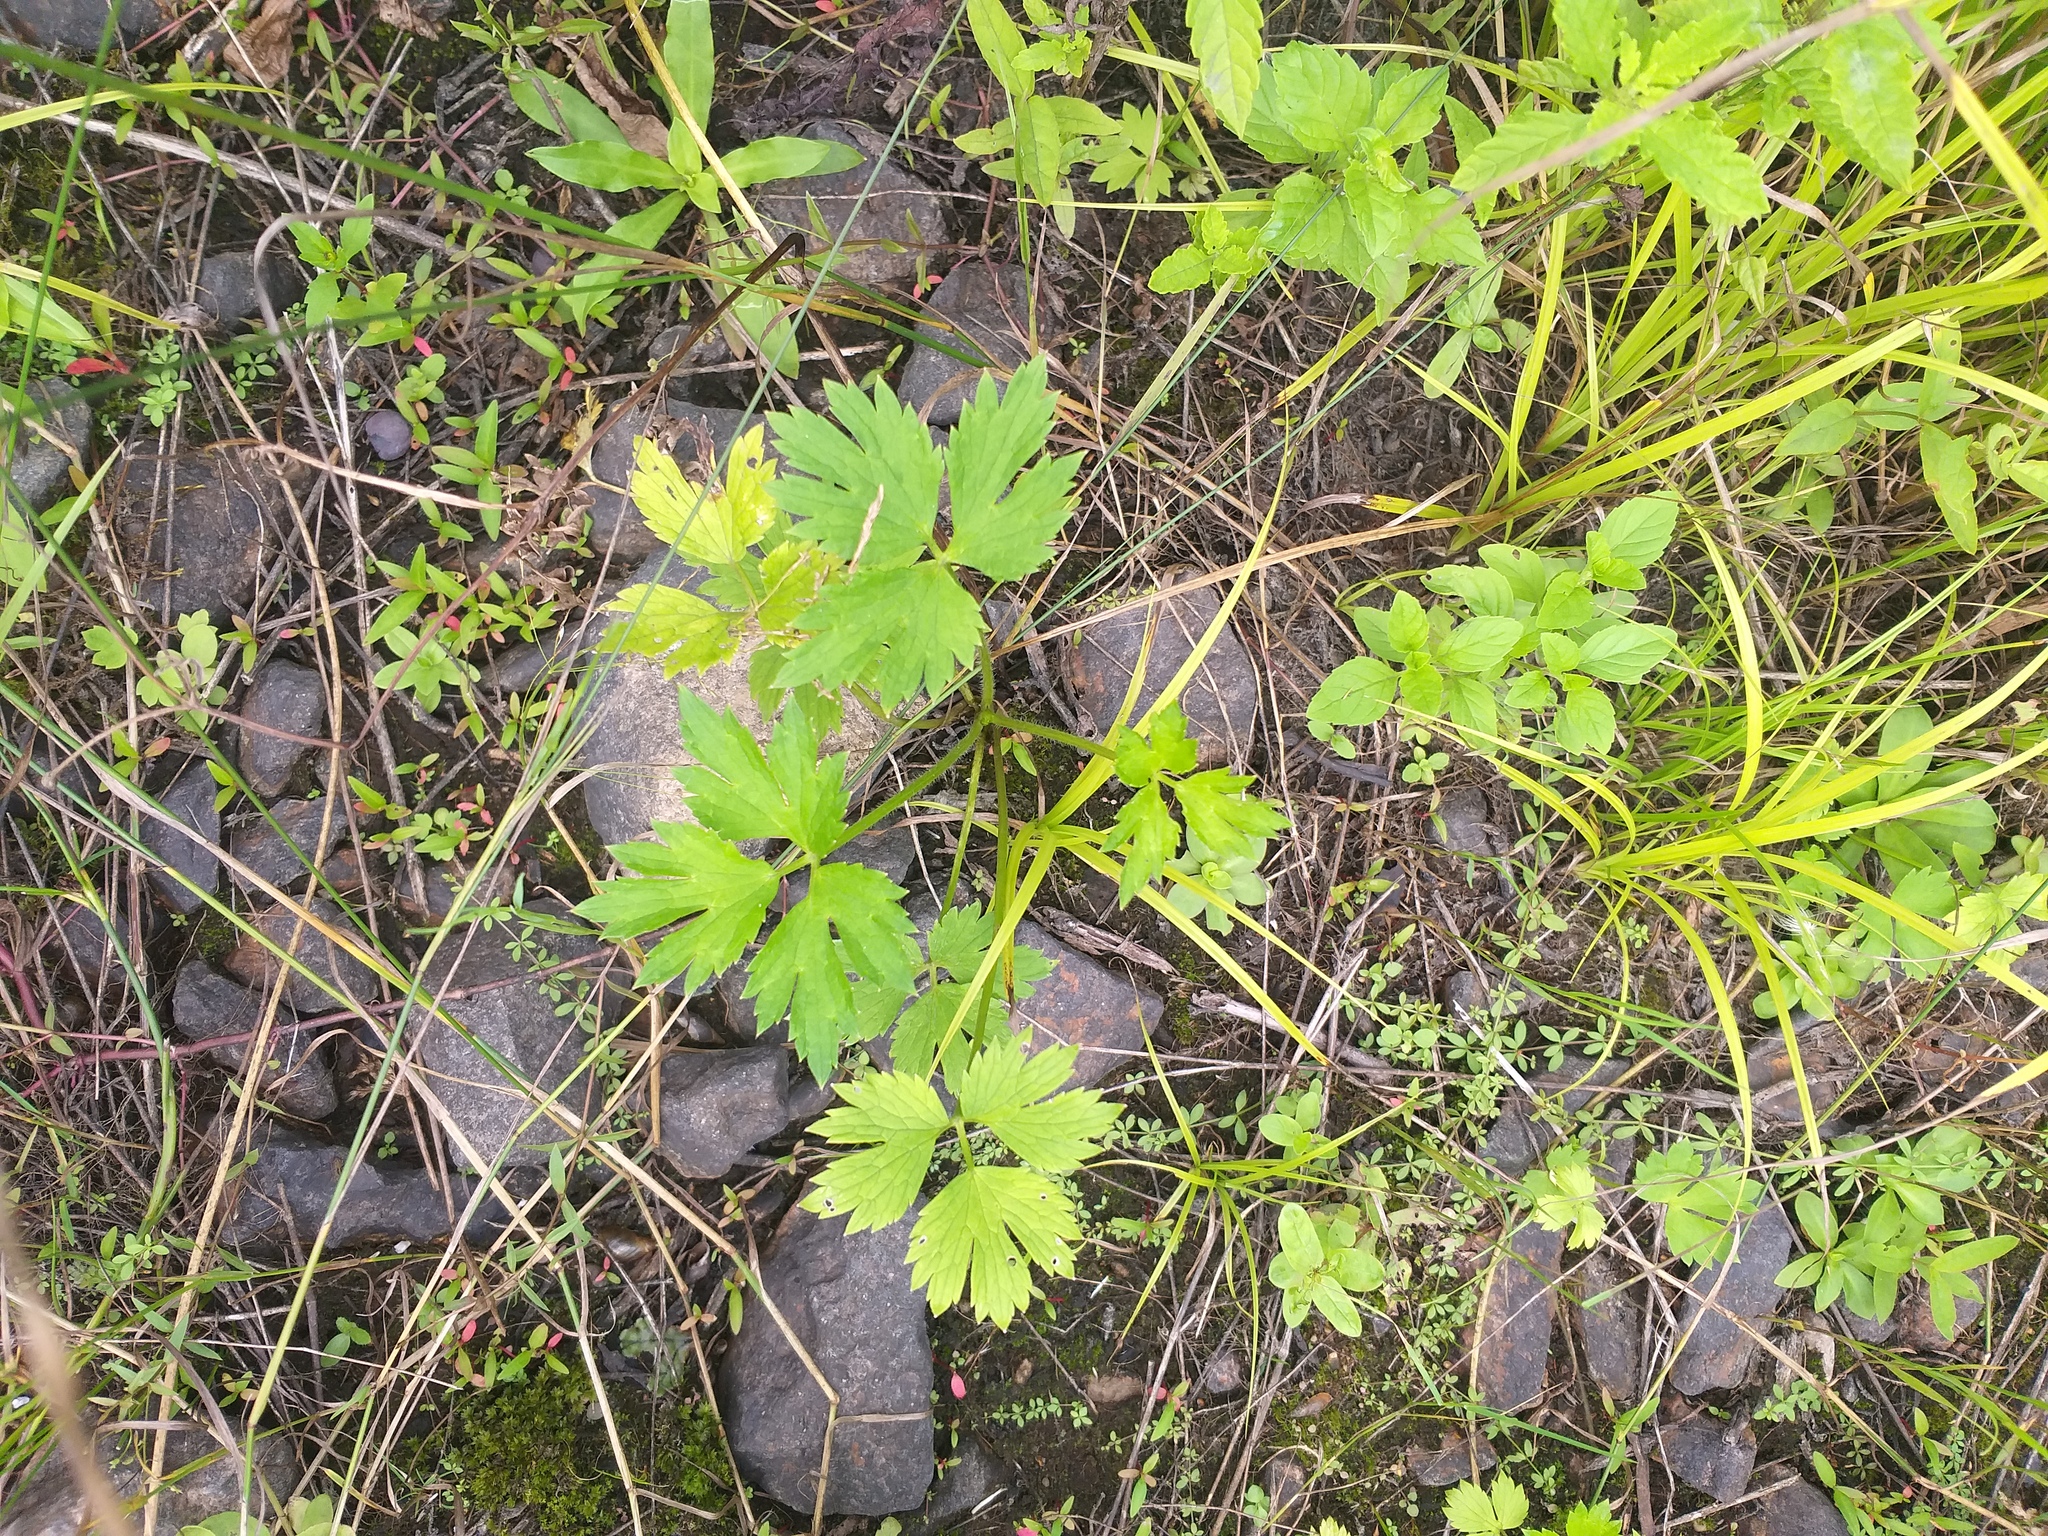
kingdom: Plantae
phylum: Tracheophyta
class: Magnoliopsida
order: Ranunculales
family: Ranunculaceae
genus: Ranunculus
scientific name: Ranunculus repens
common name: Creeping buttercup
